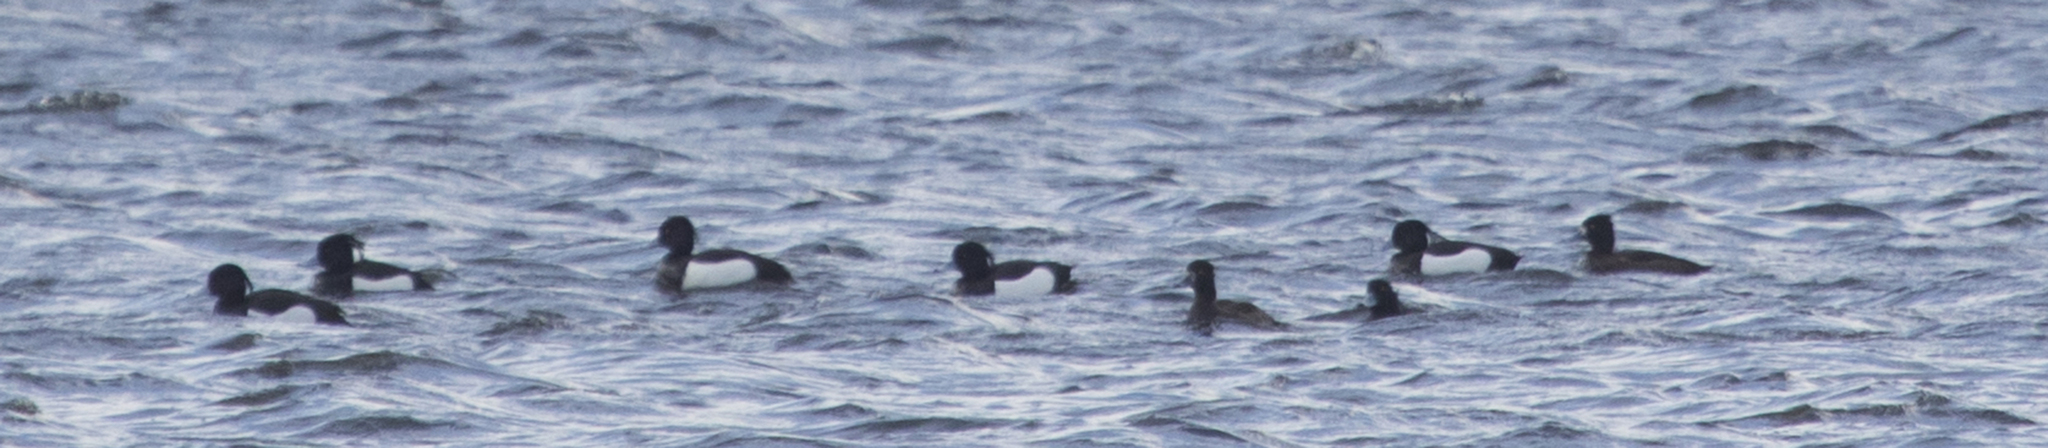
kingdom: Animalia
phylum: Chordata
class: Aves
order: Anseriformes
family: Anatidae
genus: Aythya
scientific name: Aythya fuligula
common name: Tufted duck
